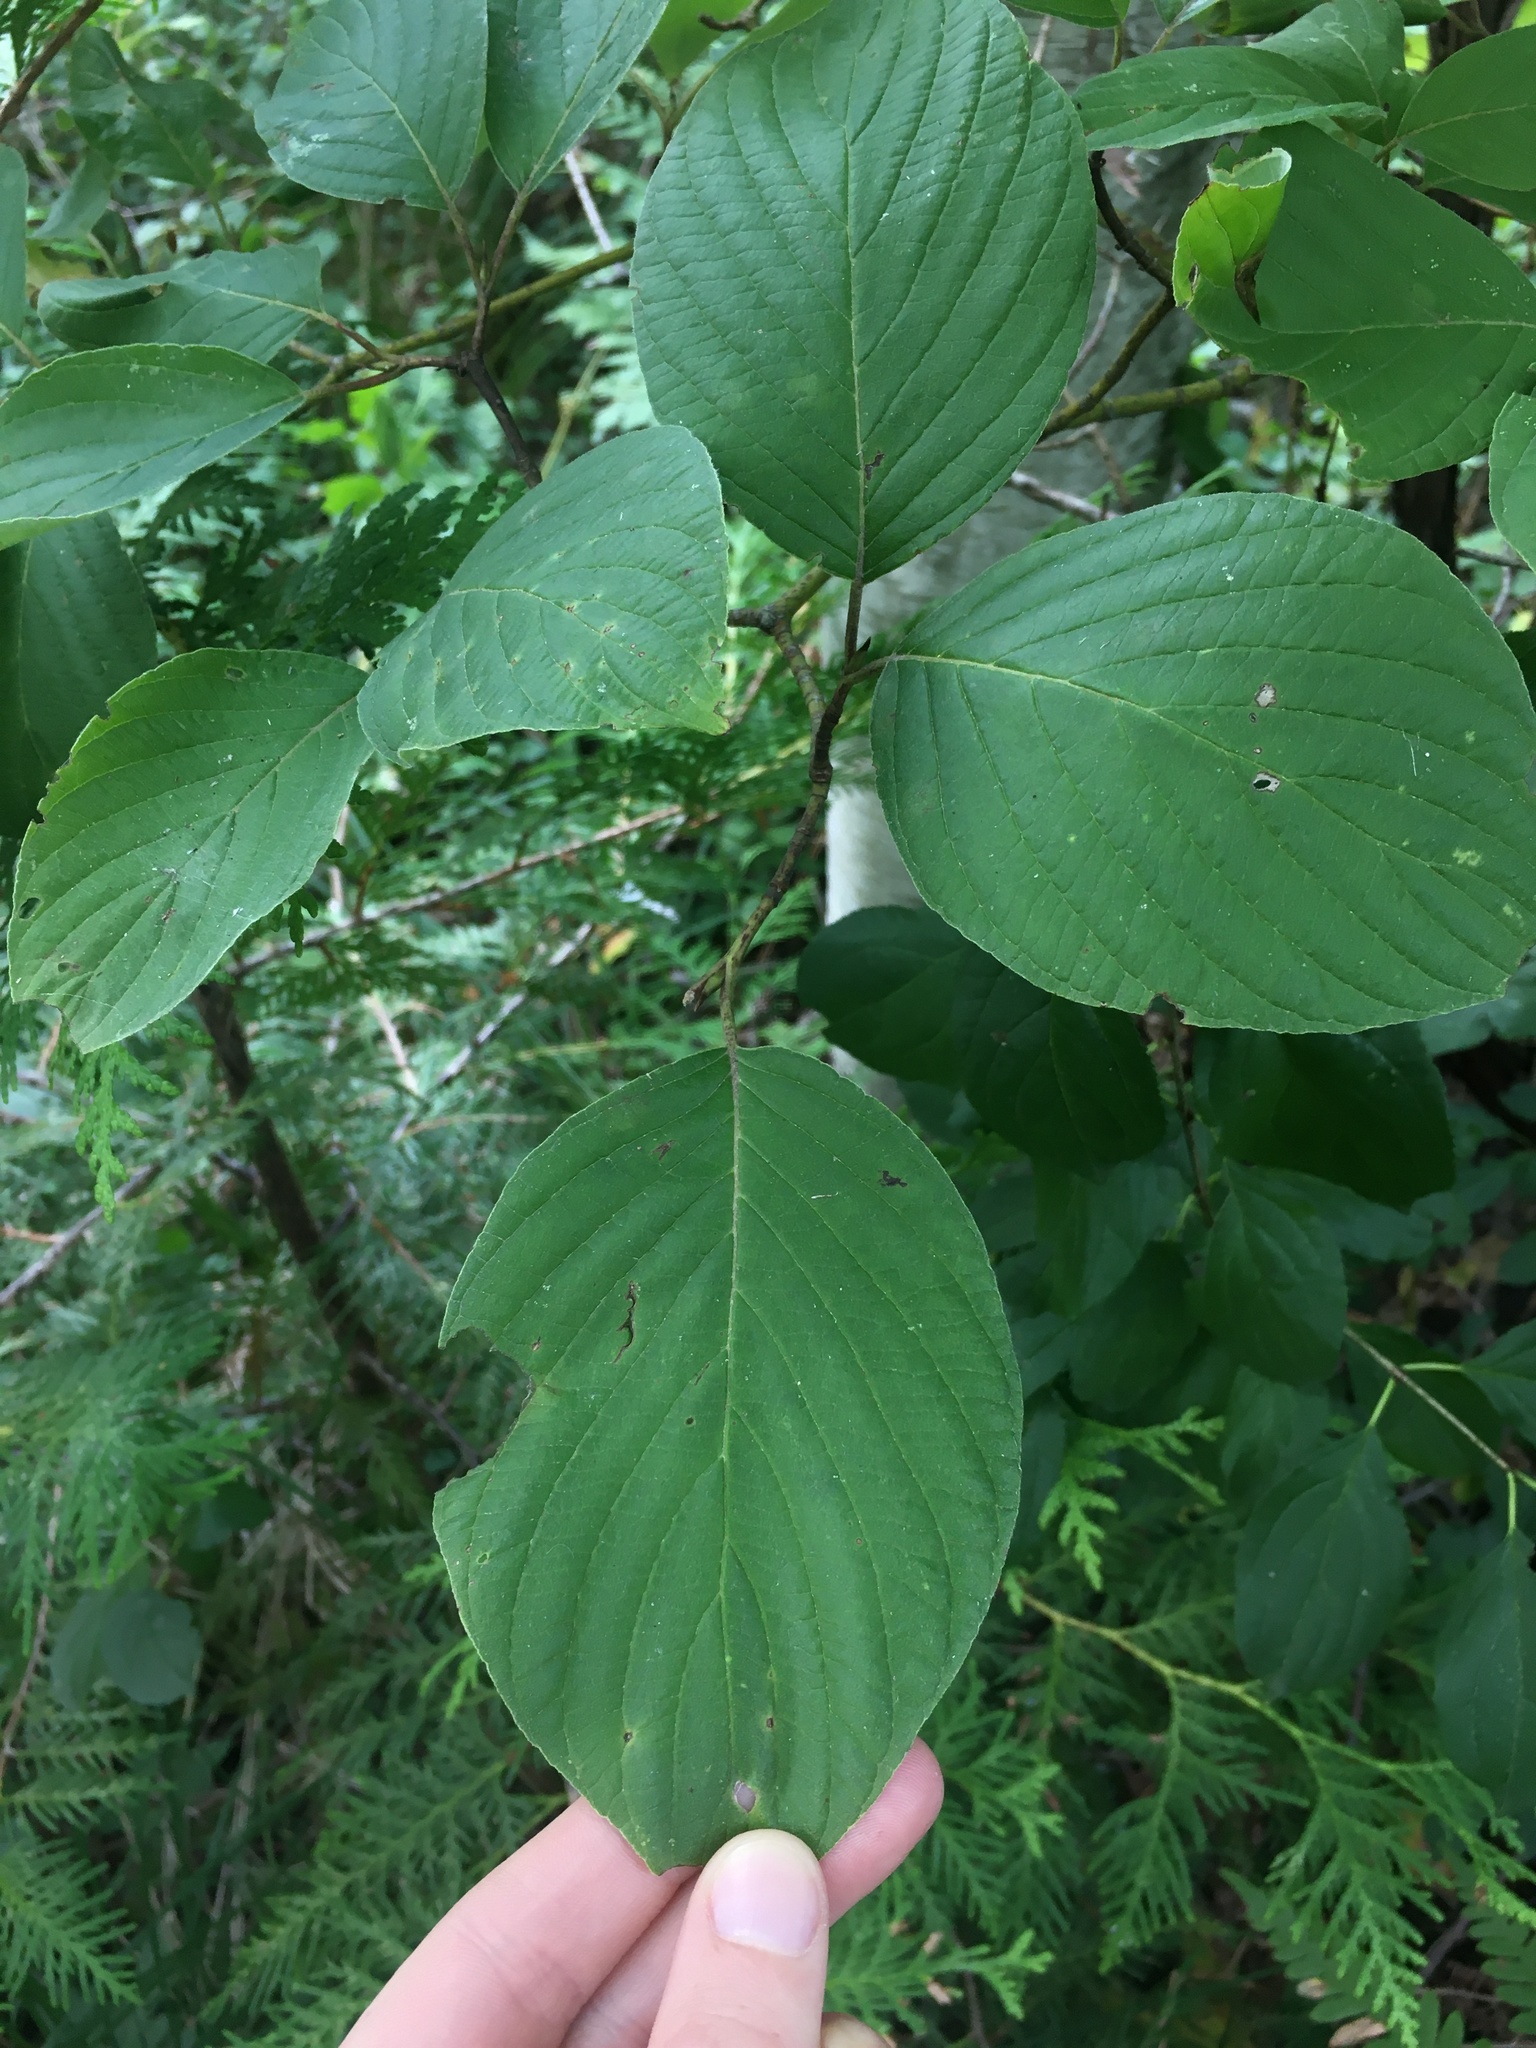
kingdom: Plantae
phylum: Tracheophyta
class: Magnoliopsida
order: Cornales
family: Cornaceae
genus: Cornus
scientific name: Cornus rugosa
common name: Round-leaf dogwood
